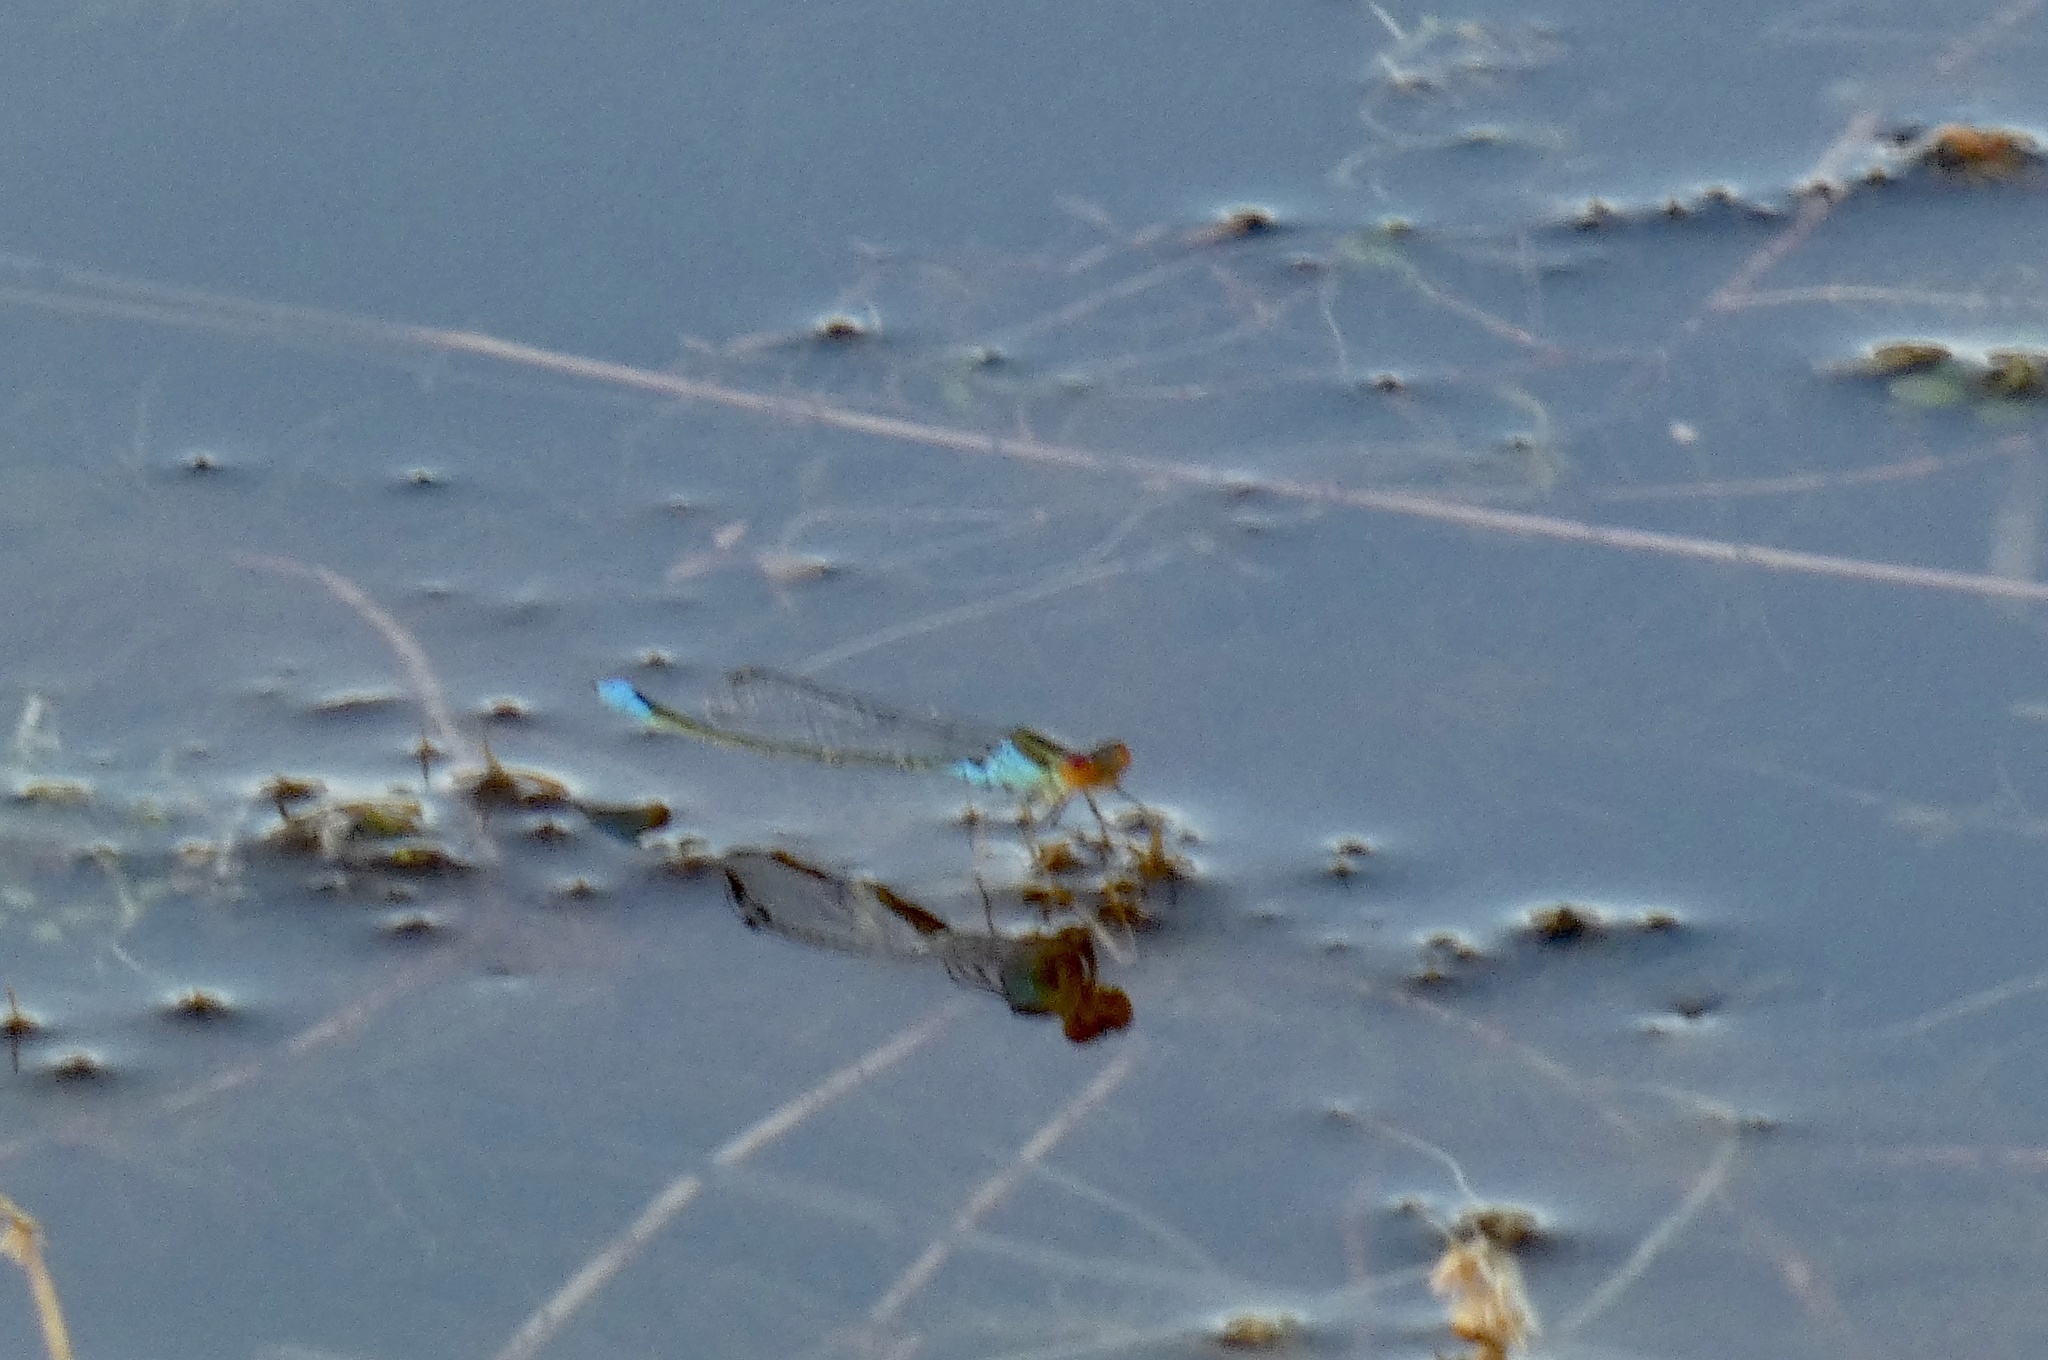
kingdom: Animalia
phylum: Arthropoda
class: Insecta
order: Odonata
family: Coenagrionidae
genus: Erythromma
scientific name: Erythromma viridulum
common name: Small red-eyed damselfly
